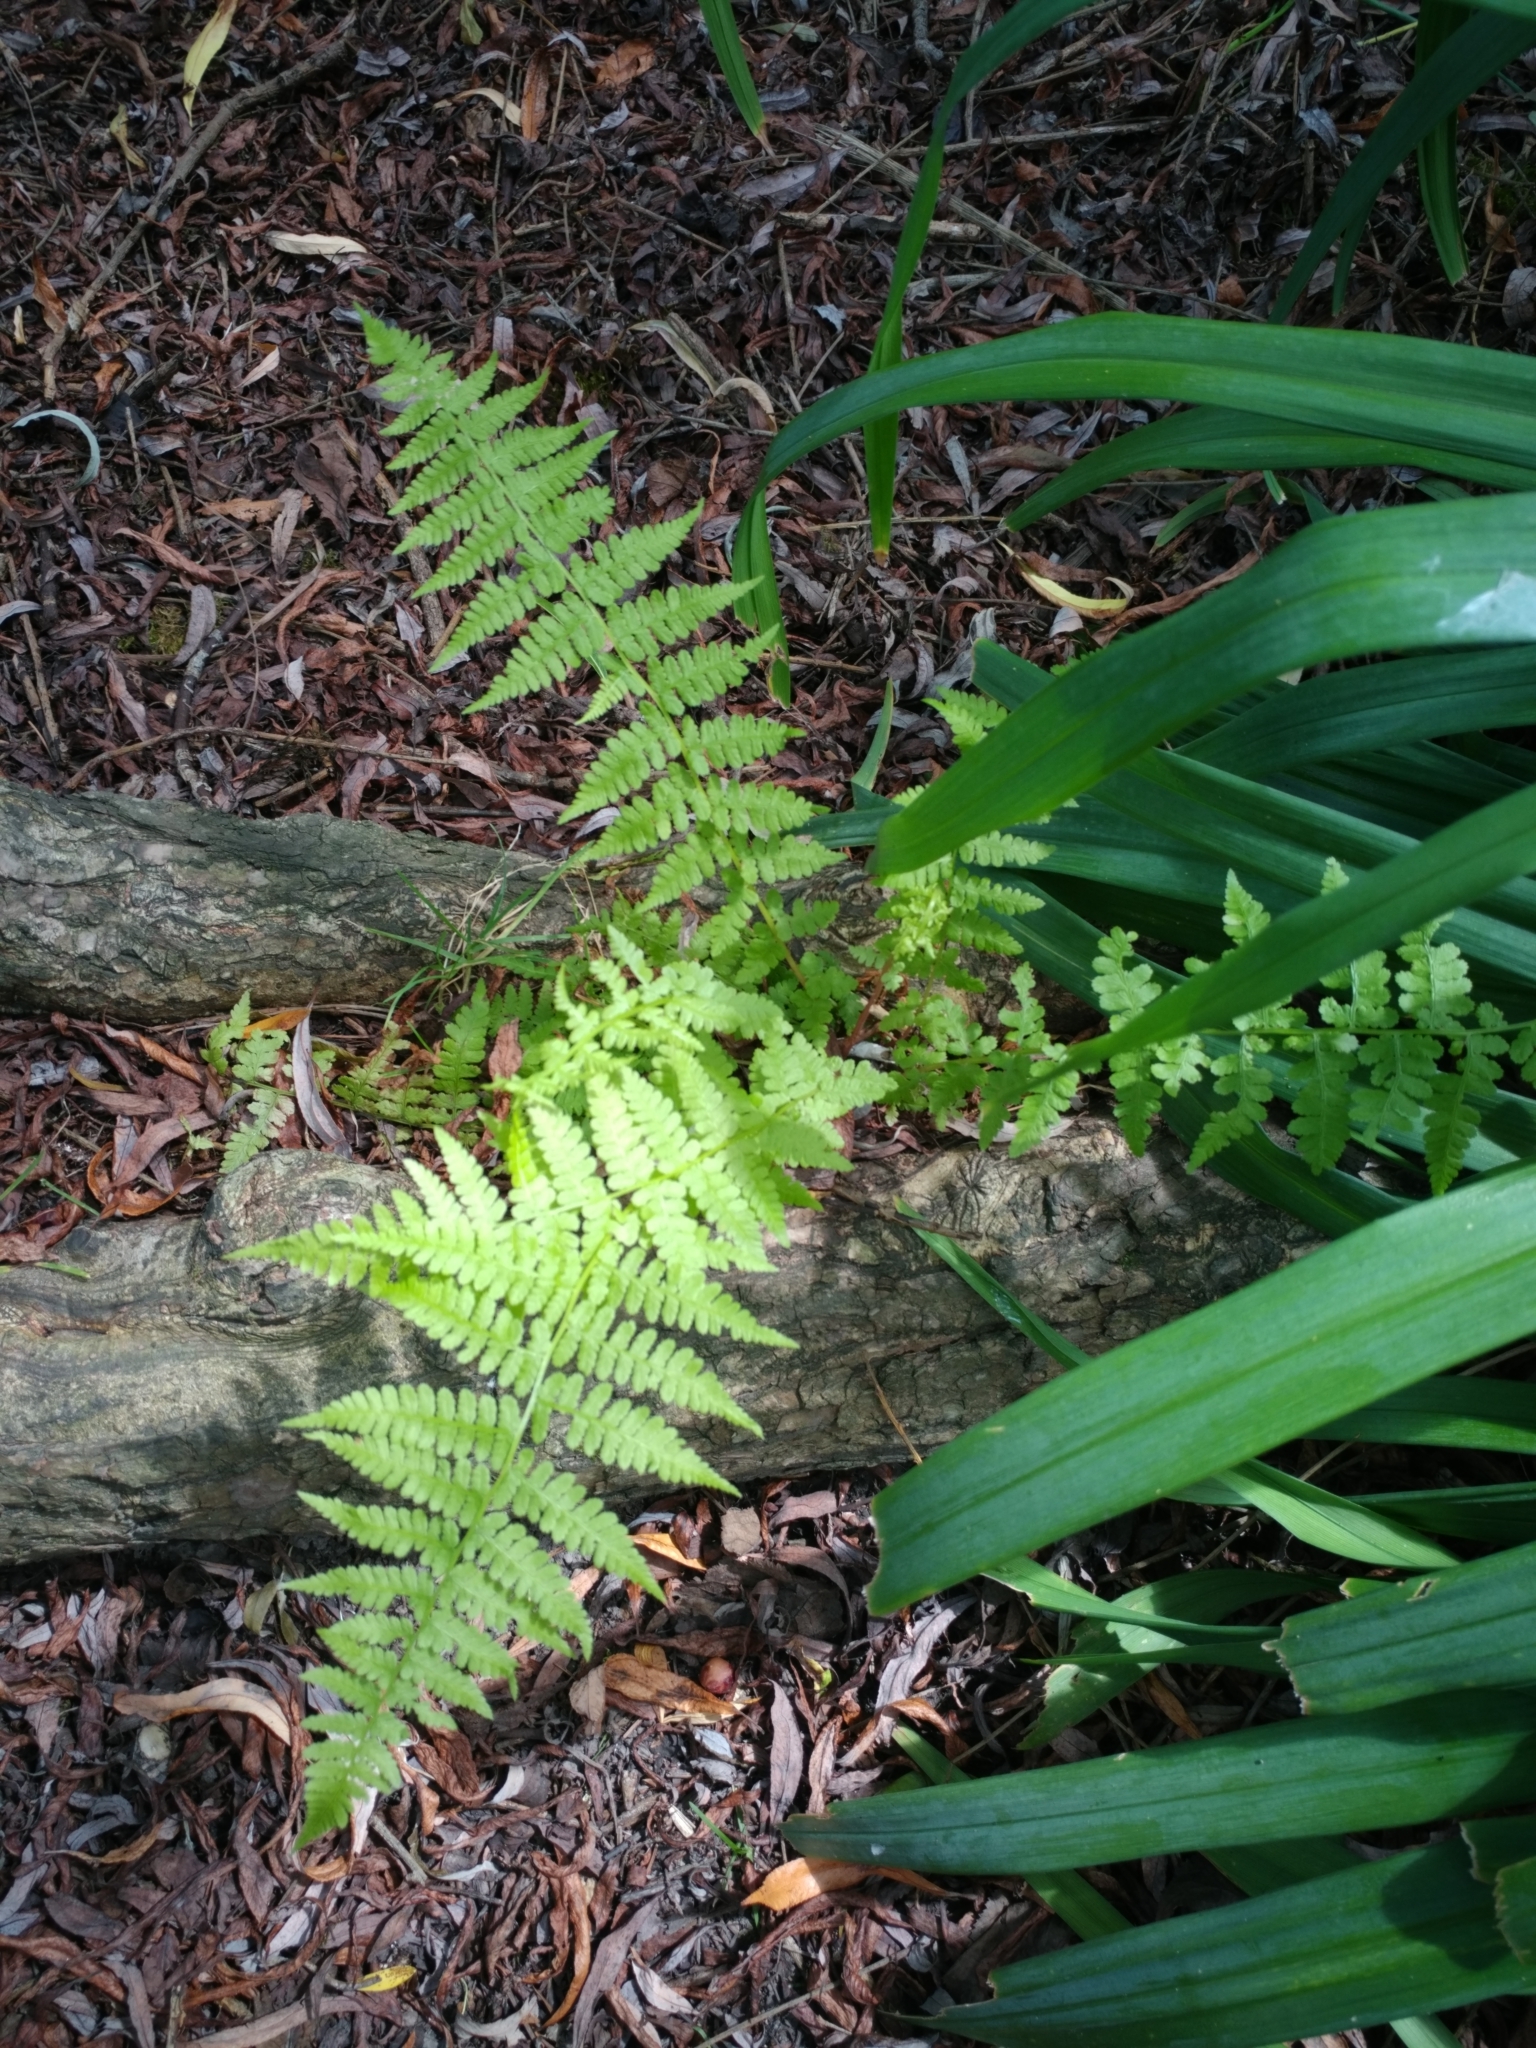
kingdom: Plantae
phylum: Tracheophyta
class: Polypodiopsida
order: Polypodiales
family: Athyriaceae
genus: Athyrium
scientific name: Athyrium filix-femina
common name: Lady fern
